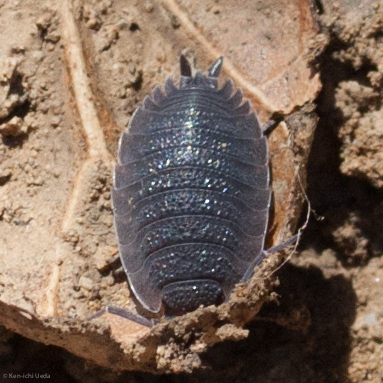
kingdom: Animalia
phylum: Arthropoda
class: Malacostraca
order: Isopoda
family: Porcellionidae
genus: Porcellio
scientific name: Porcellio scaber
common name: Common rough woodlouse
